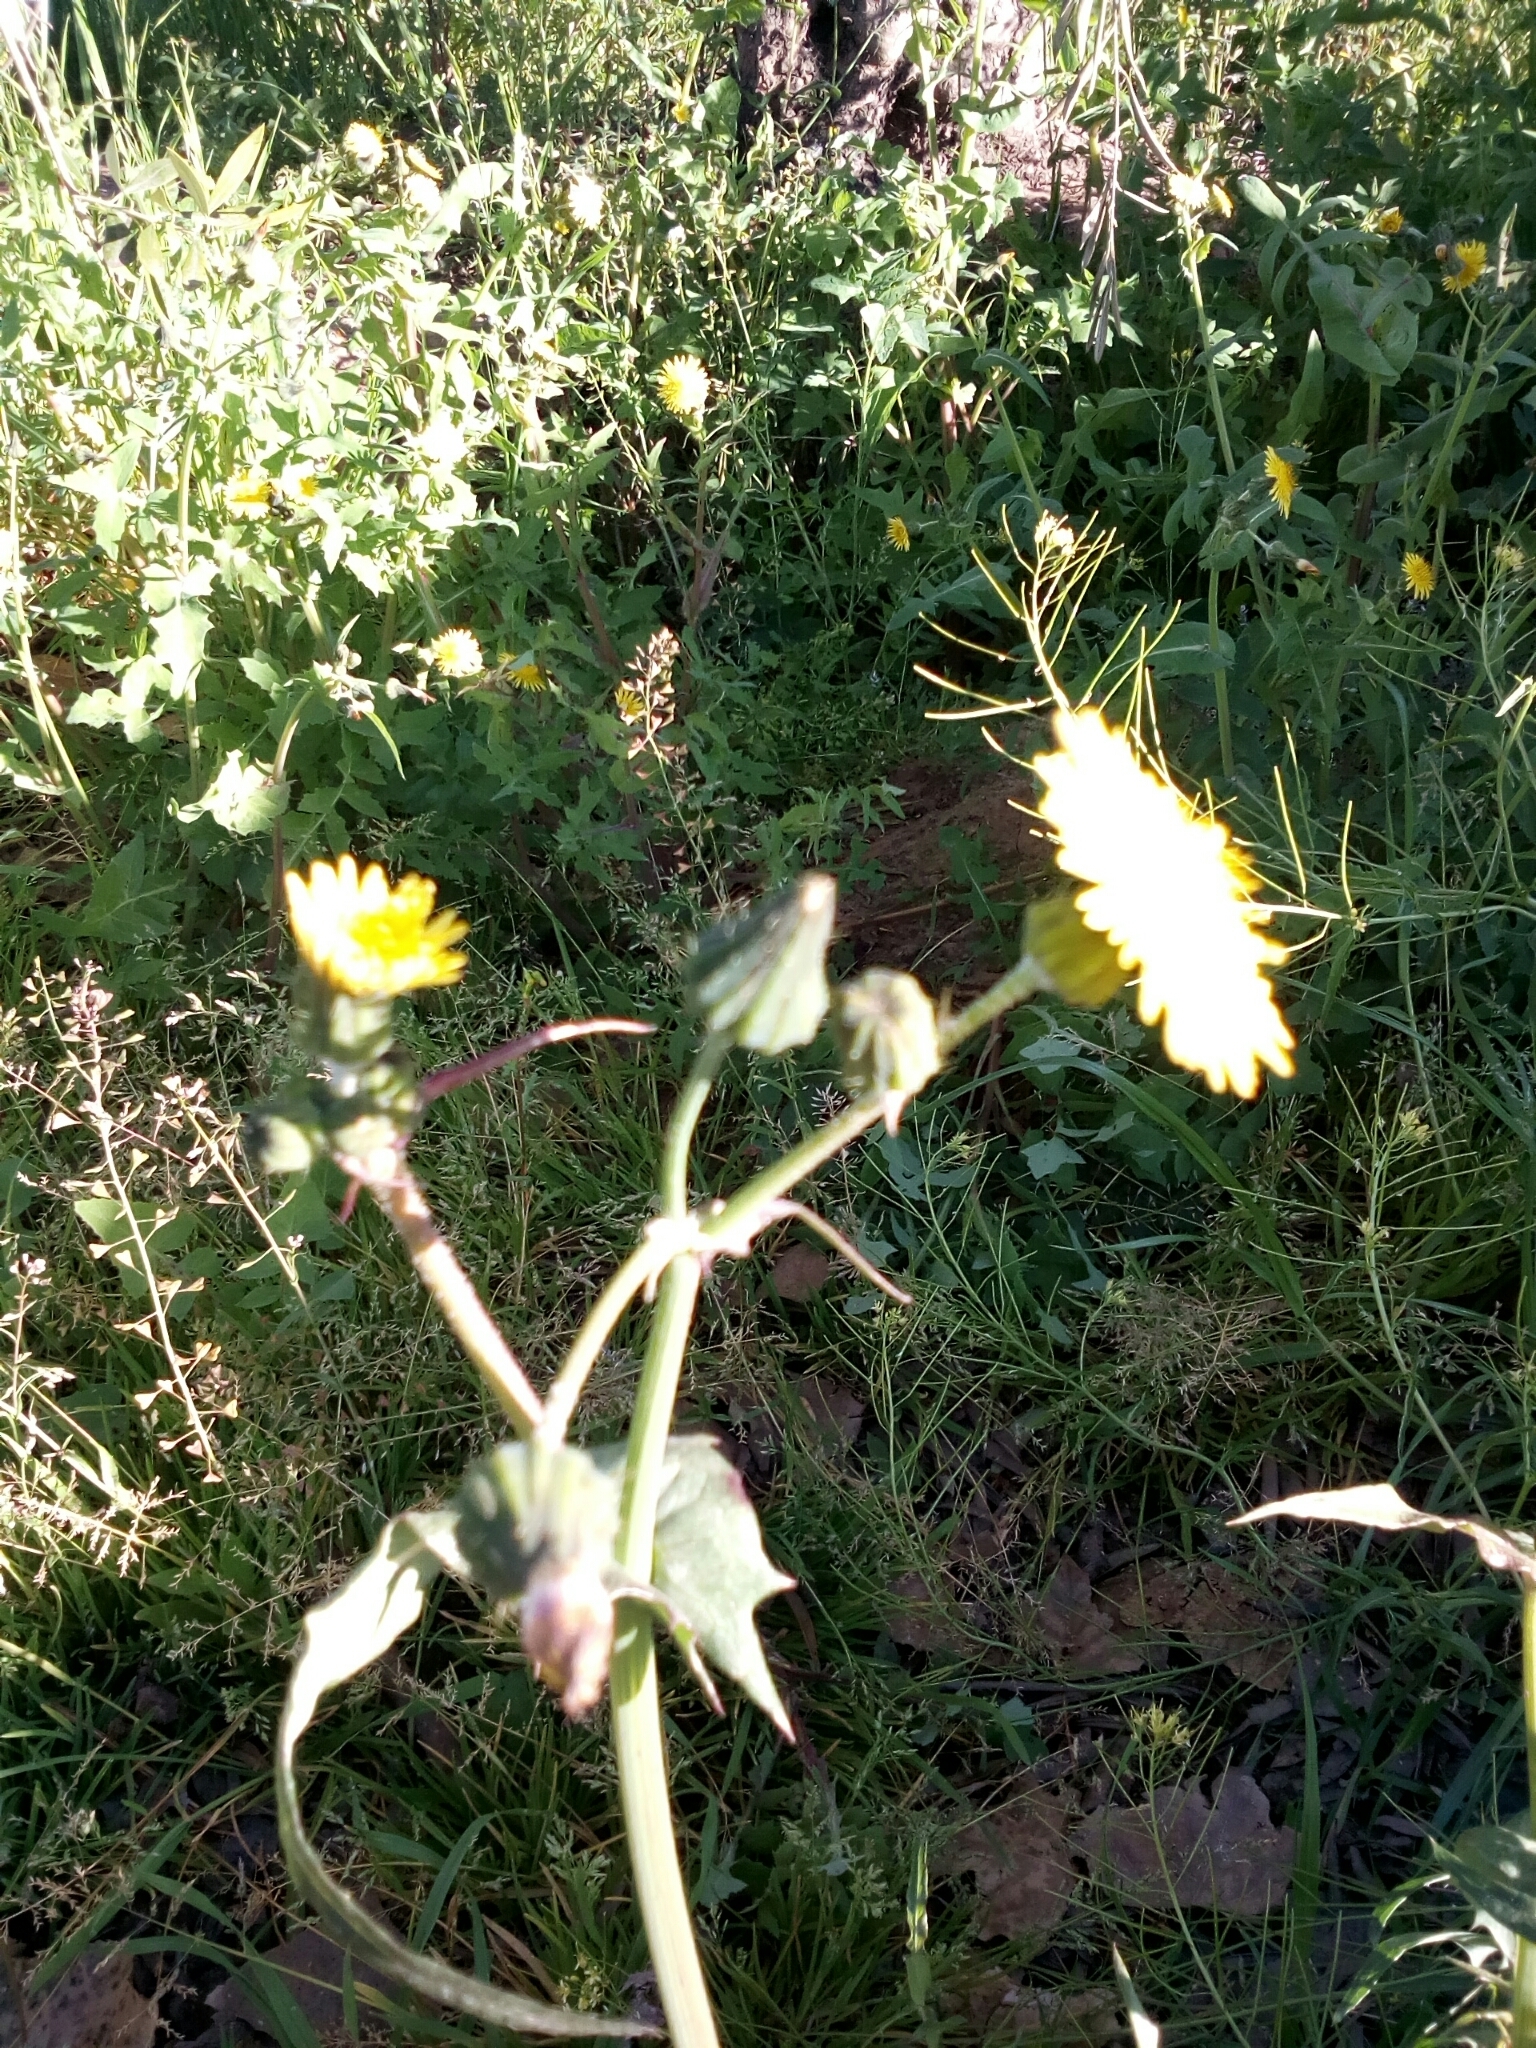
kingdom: Plantae
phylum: Tracheophyta
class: Magnoliopsida
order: Asterales
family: Asteraceae
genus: Sonchus
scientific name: Sonchus oleraceus
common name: Common sowthistle
